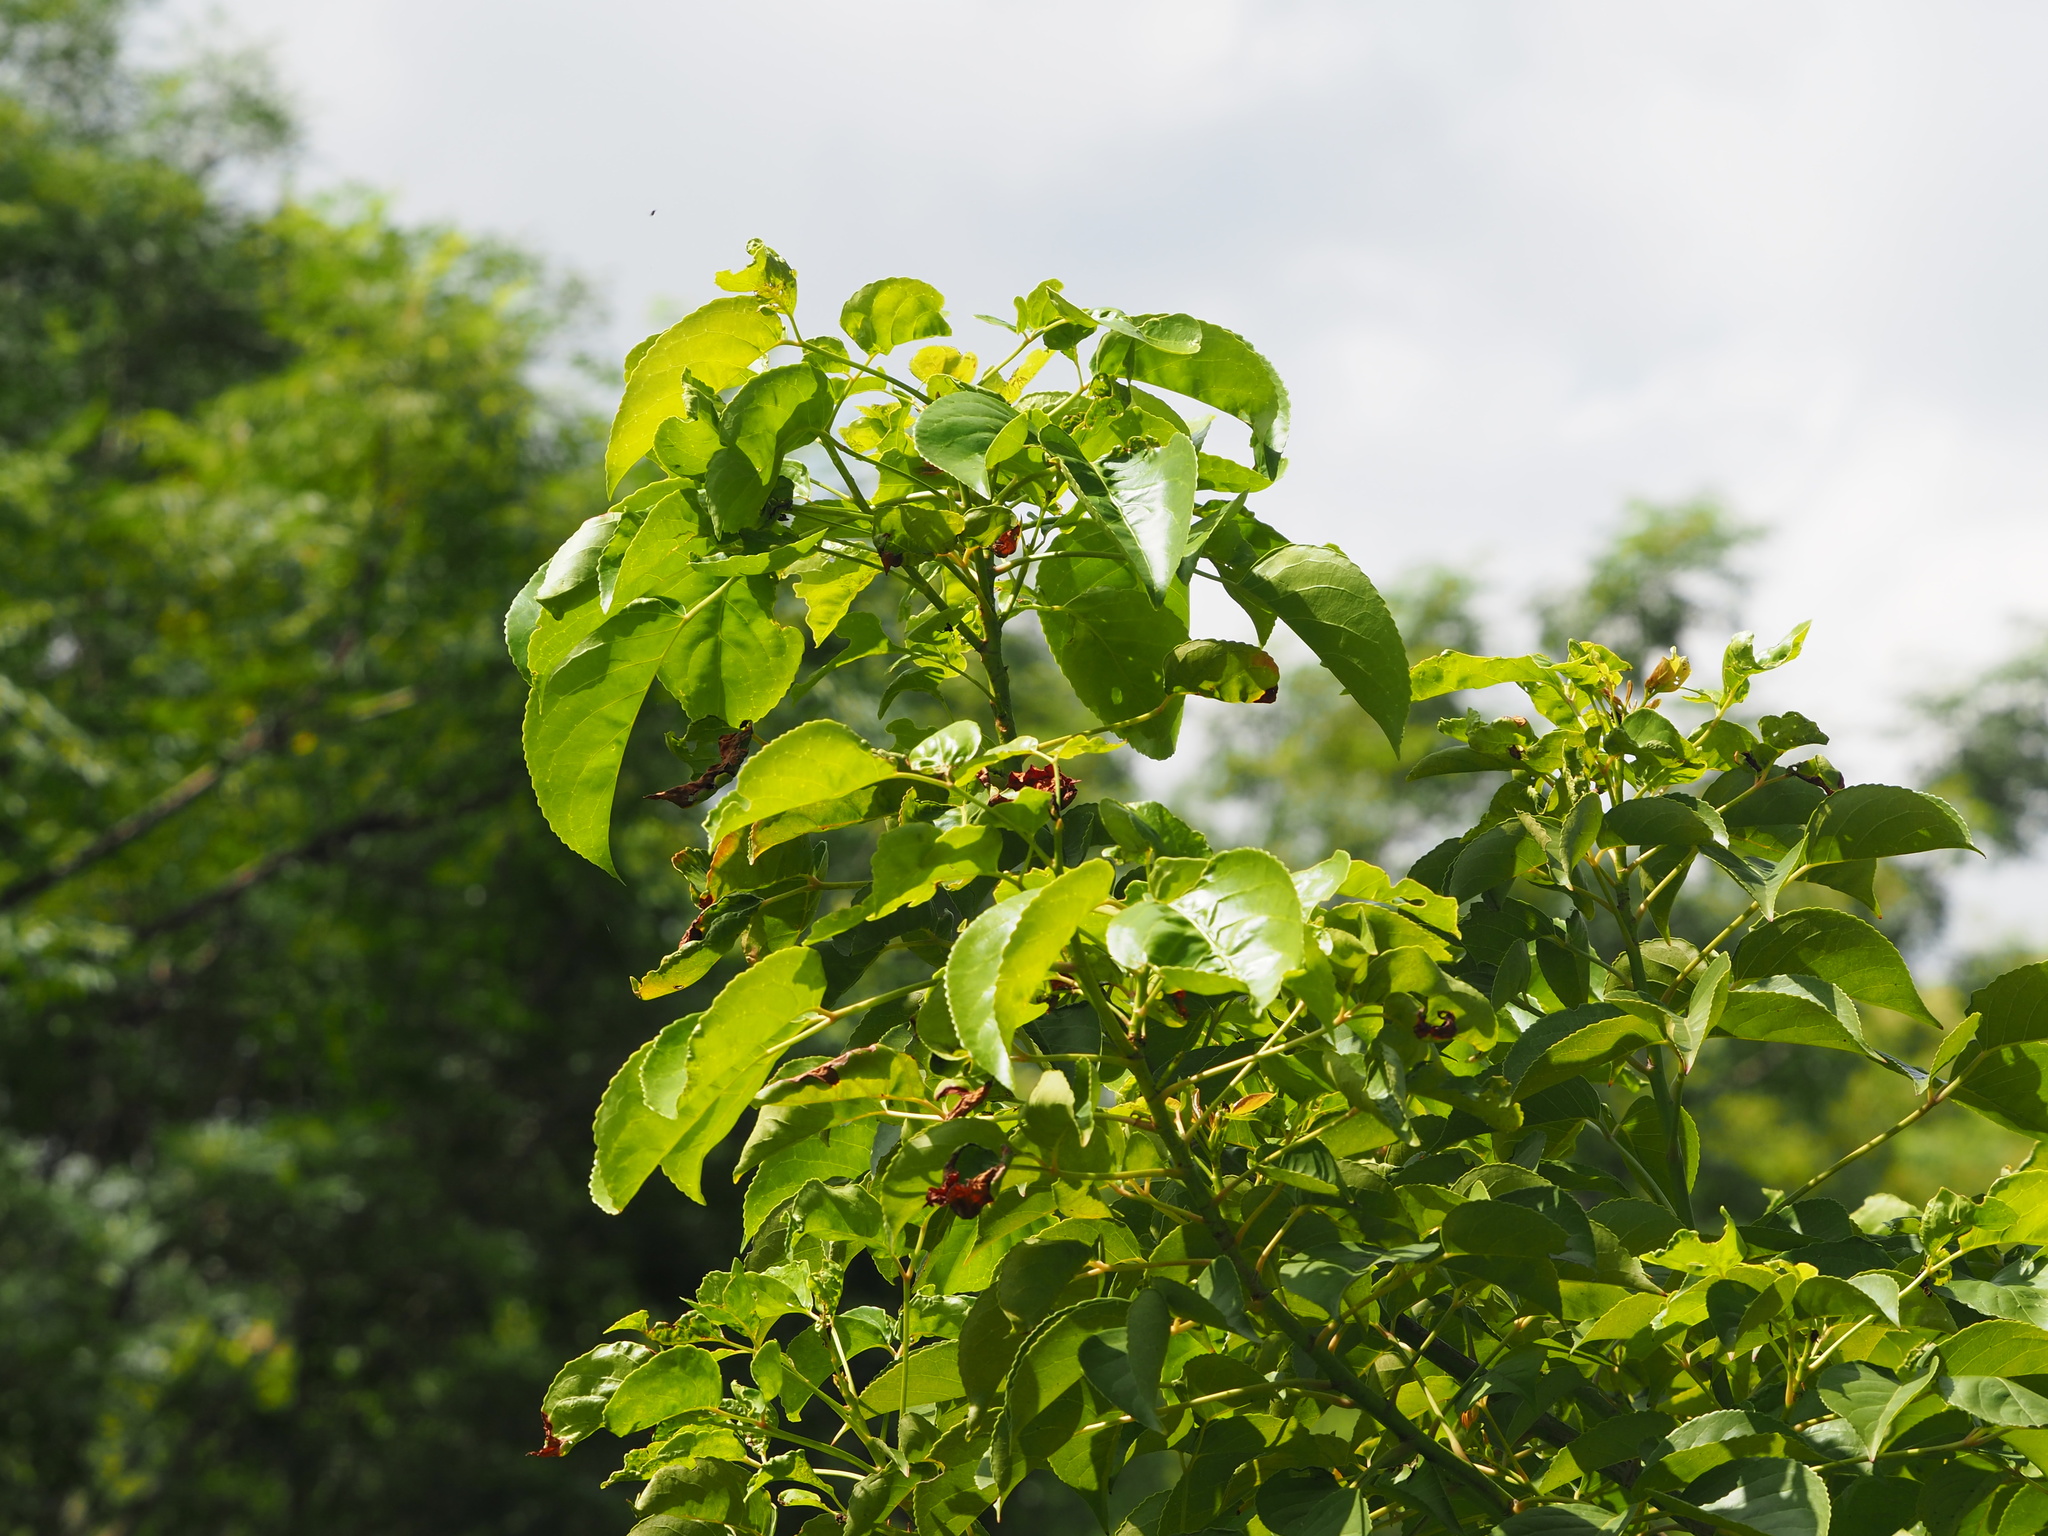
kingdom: Plantae
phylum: Tracheophyta
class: Magnoliopsida
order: Malpighiales
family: Phyllanthaceae
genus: Bischofia
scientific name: Bischofia javanica
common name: Javanese bishopwood
